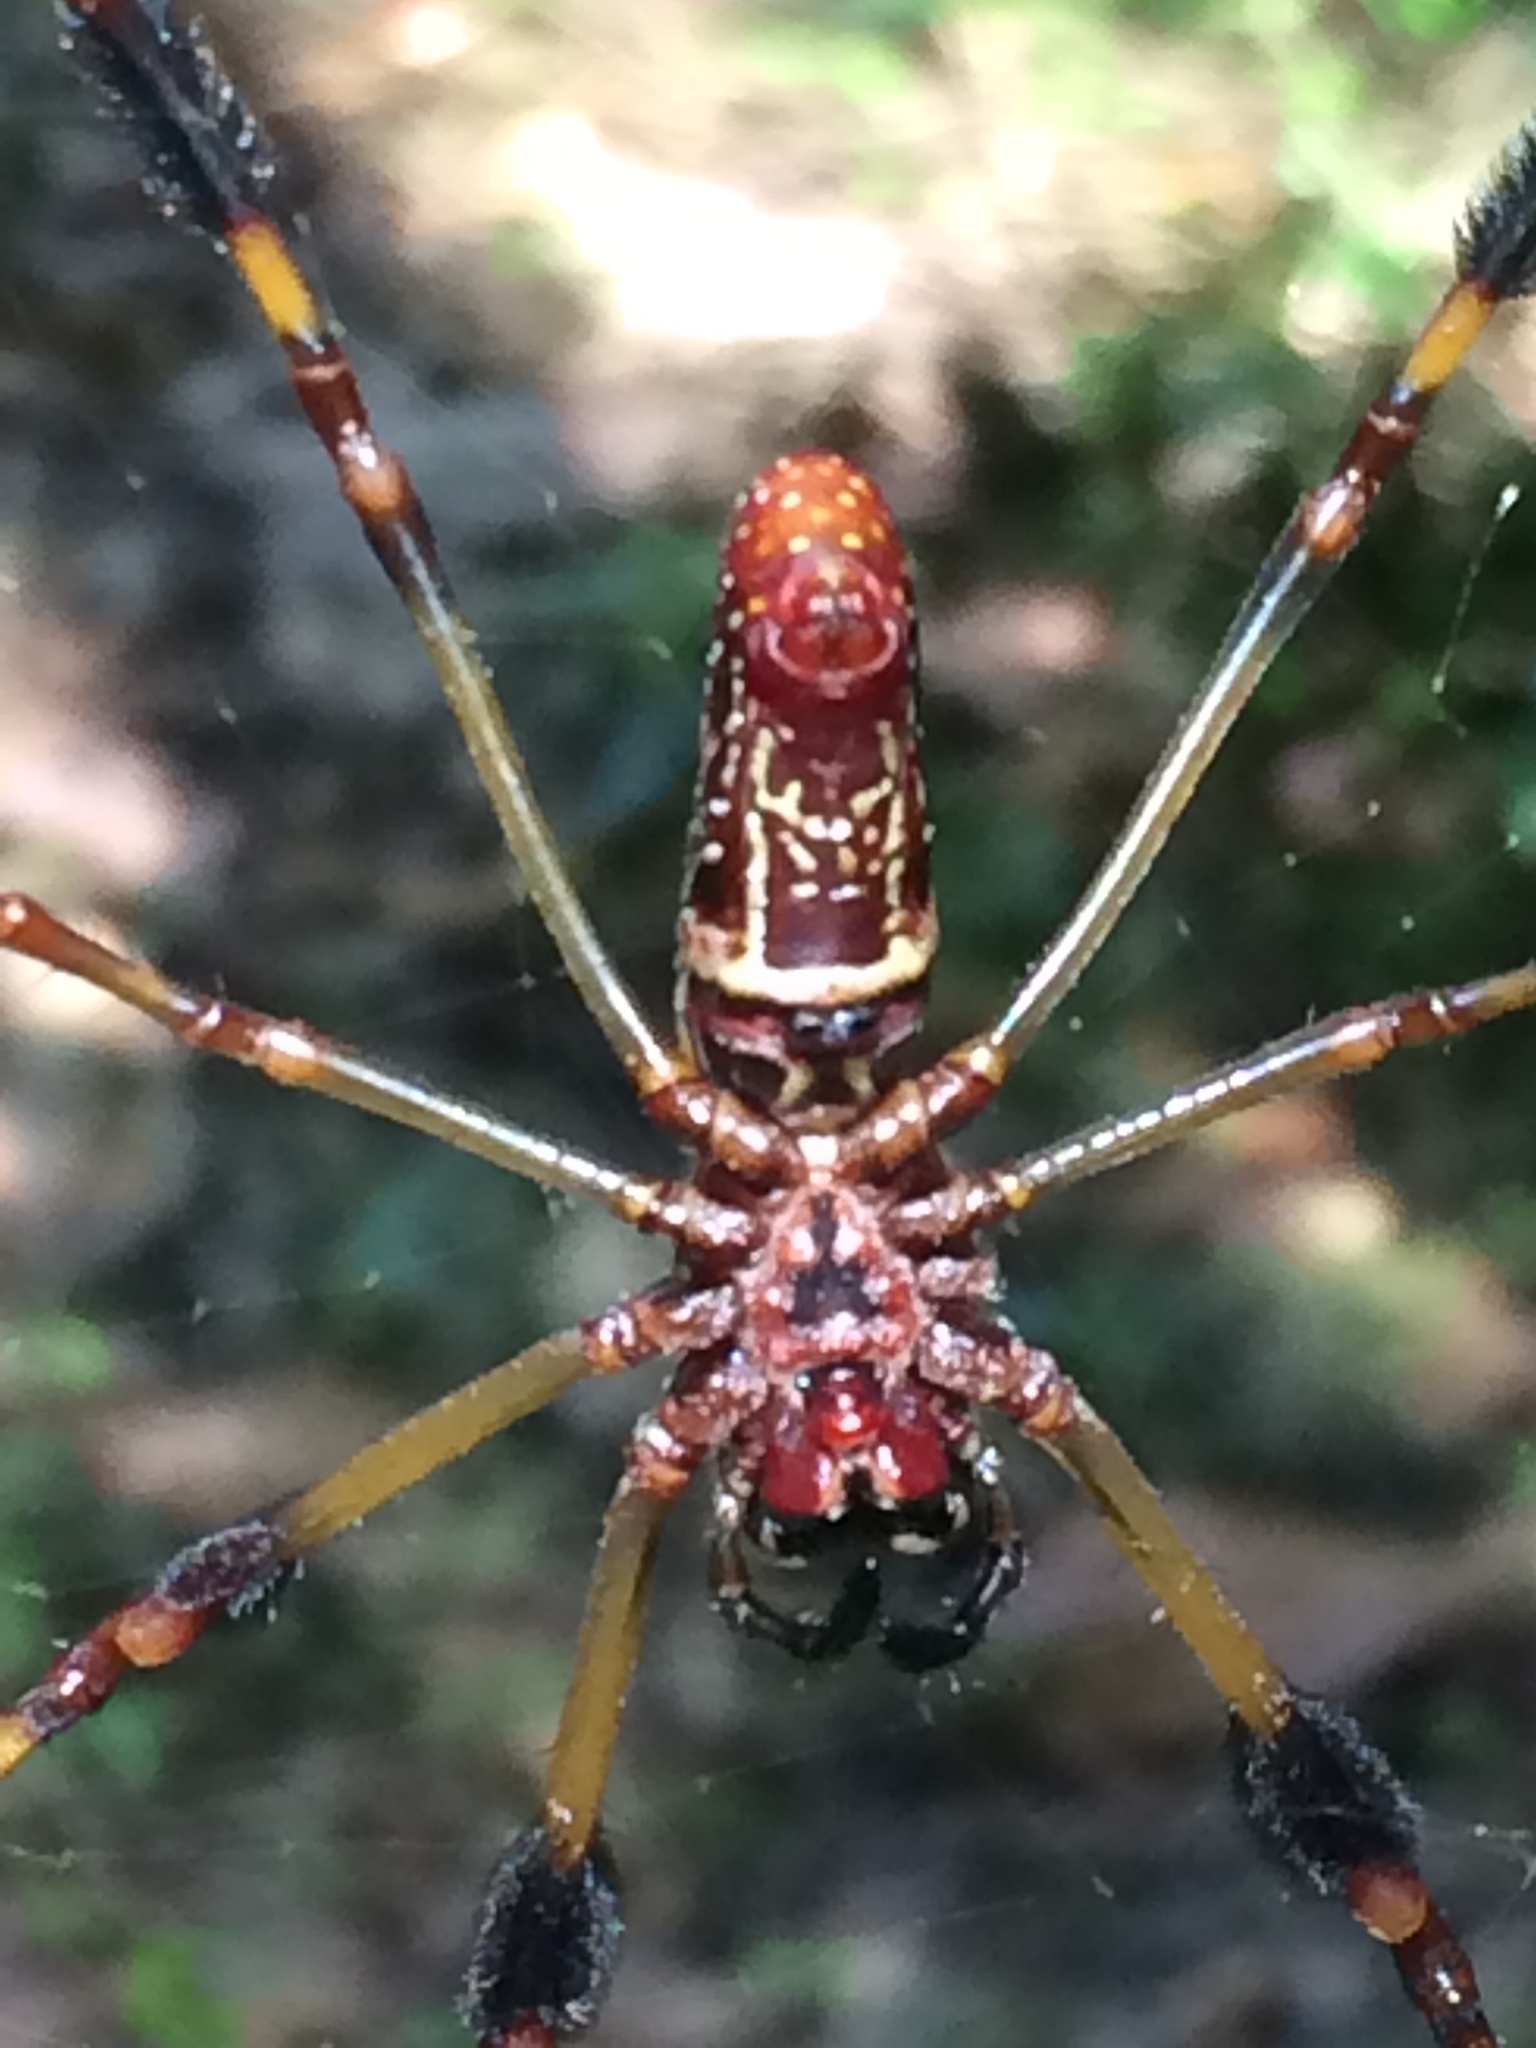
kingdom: Animalia
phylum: Arthropoda
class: Arachnida
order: Araneae
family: Araneidae
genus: Trichonephila
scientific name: Trichonephila clavipes
